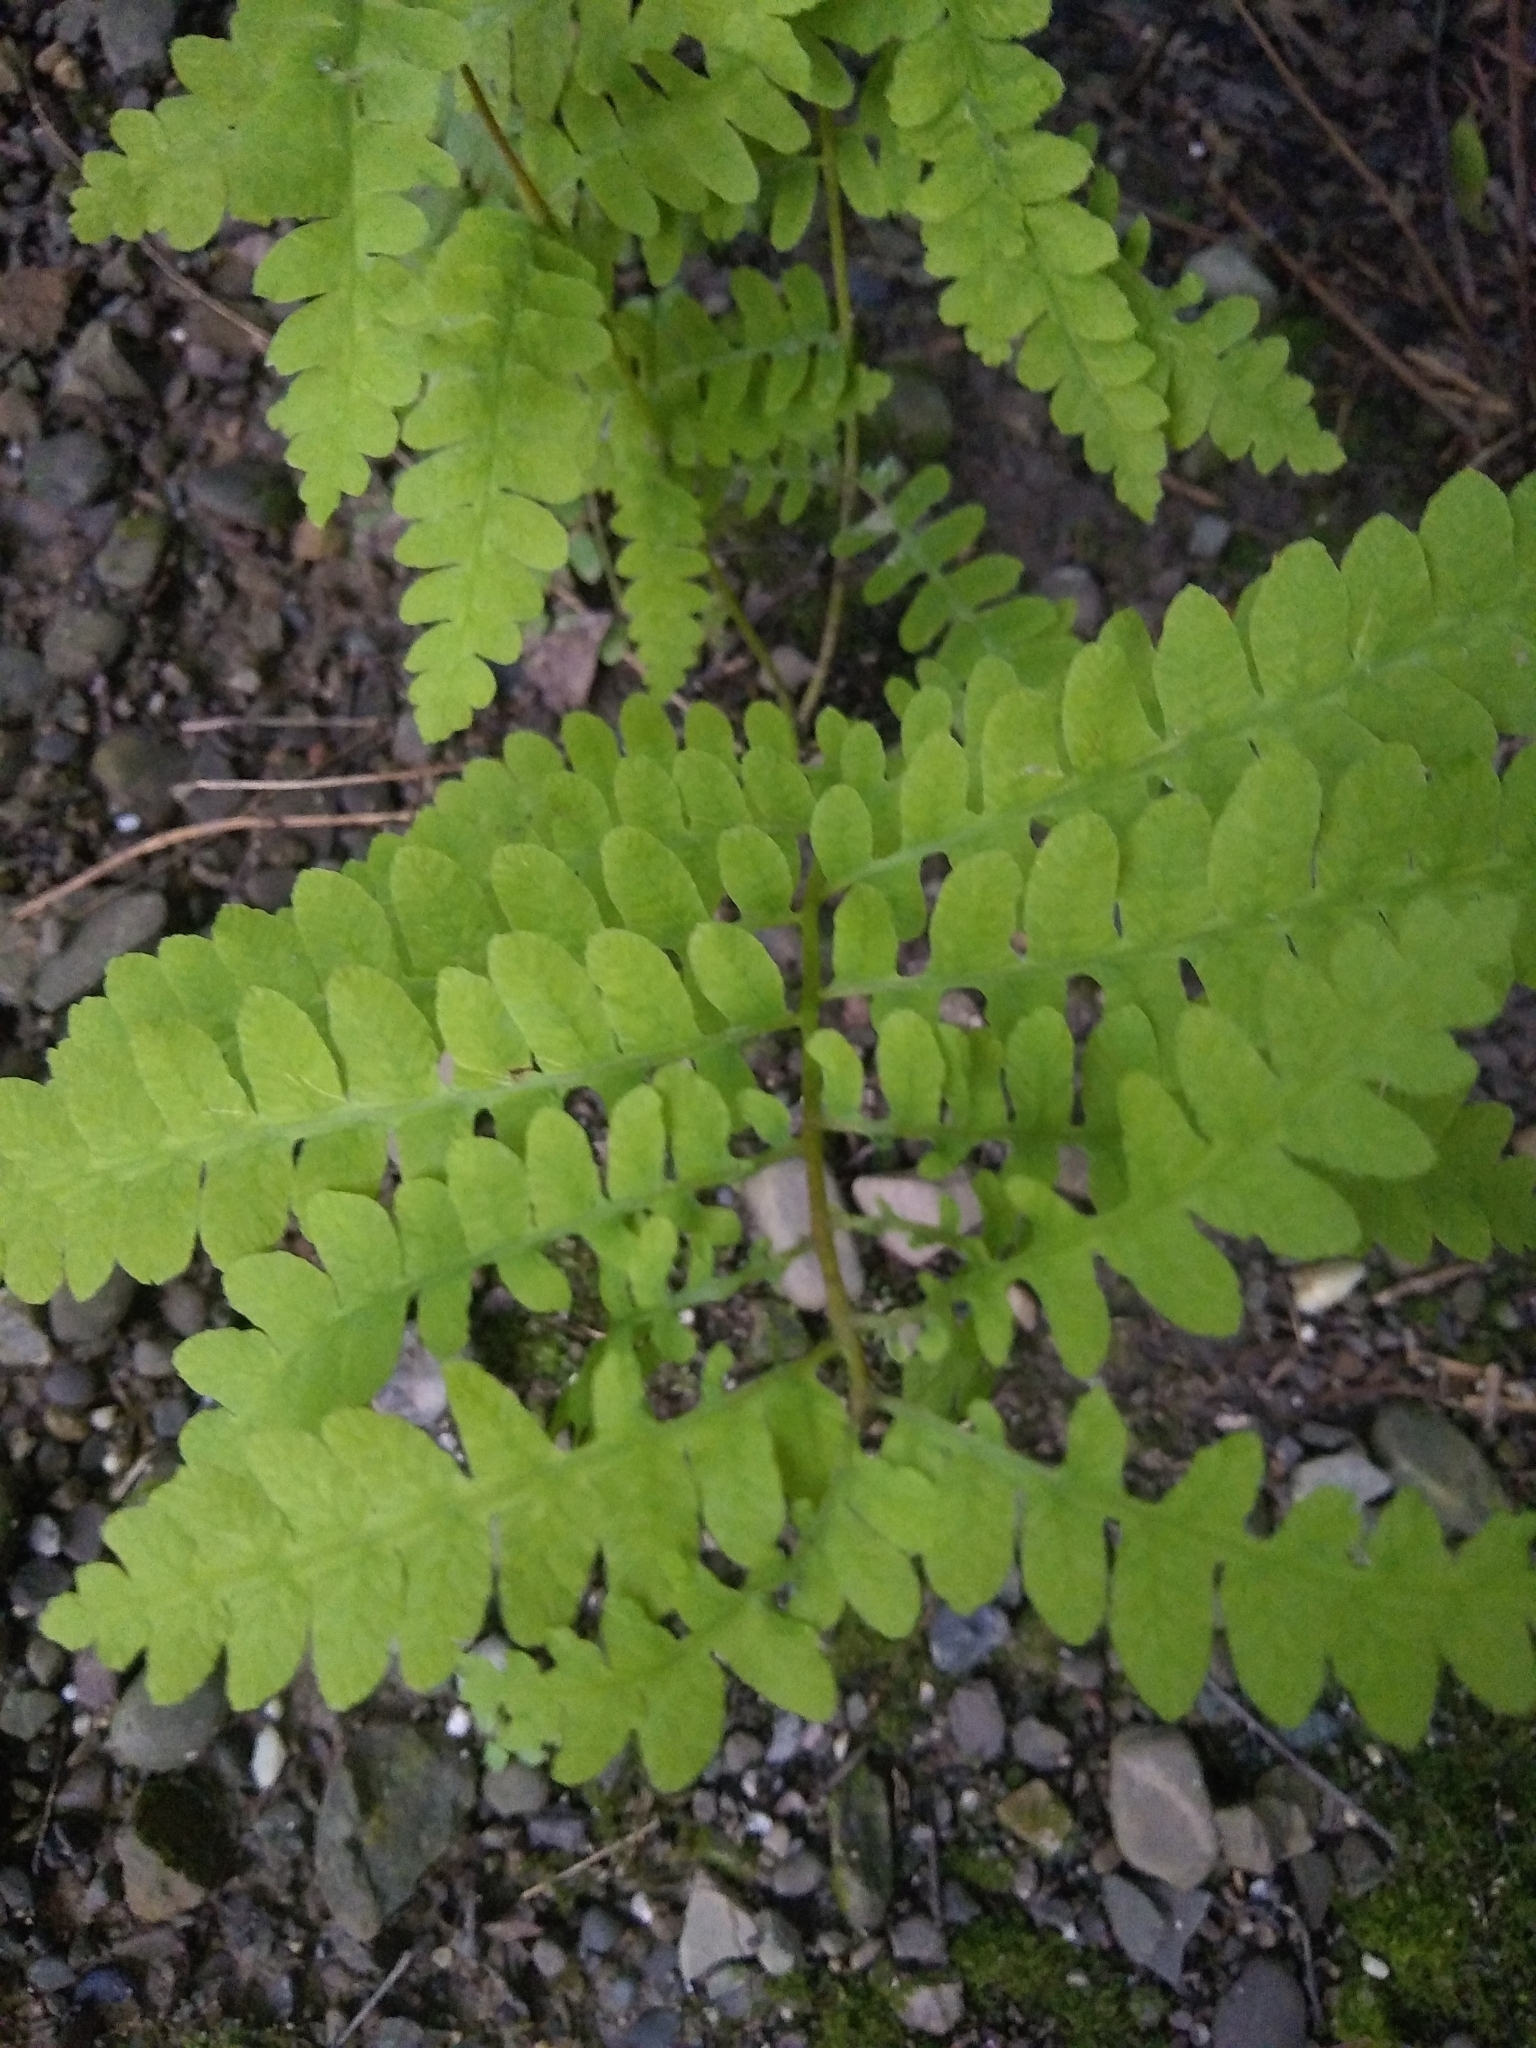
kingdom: Plantae
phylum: Tracheophyta
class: Polypodiopsida
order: Polypodiales
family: Thelypteridaceae
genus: Thelypteris
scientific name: Thelypteris palustris
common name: Marsh fern
